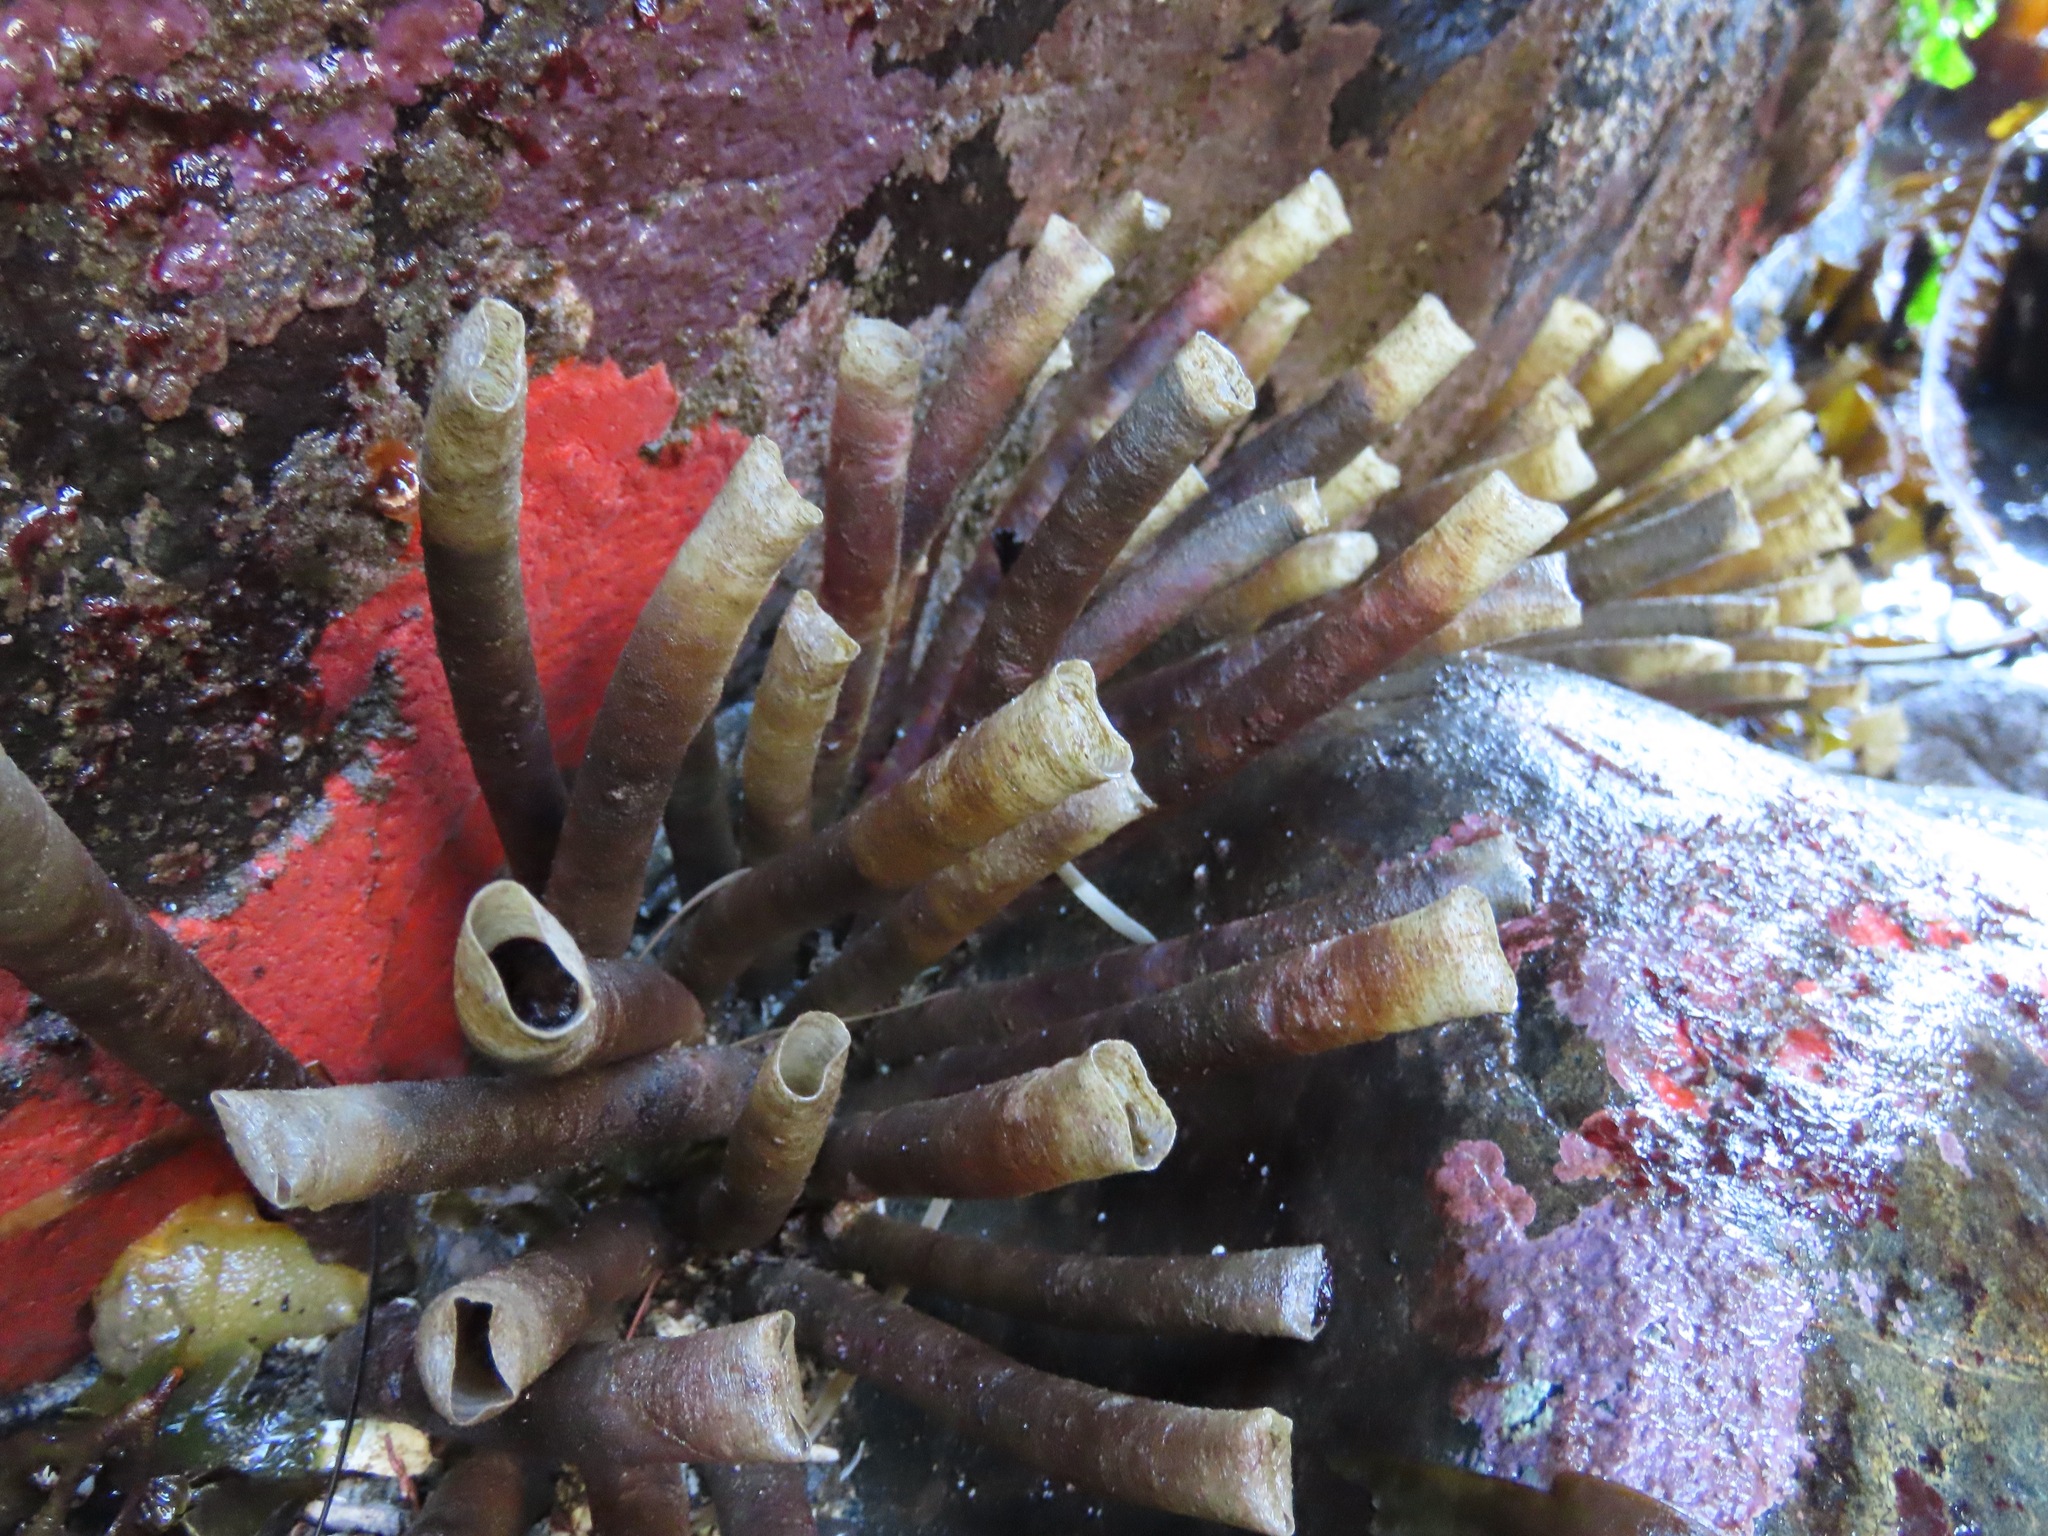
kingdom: Animalia
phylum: Annelida
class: Polychaeta
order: Sabellida
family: Sabellidae
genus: Eudistylia
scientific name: Eudistylia vancouveri
